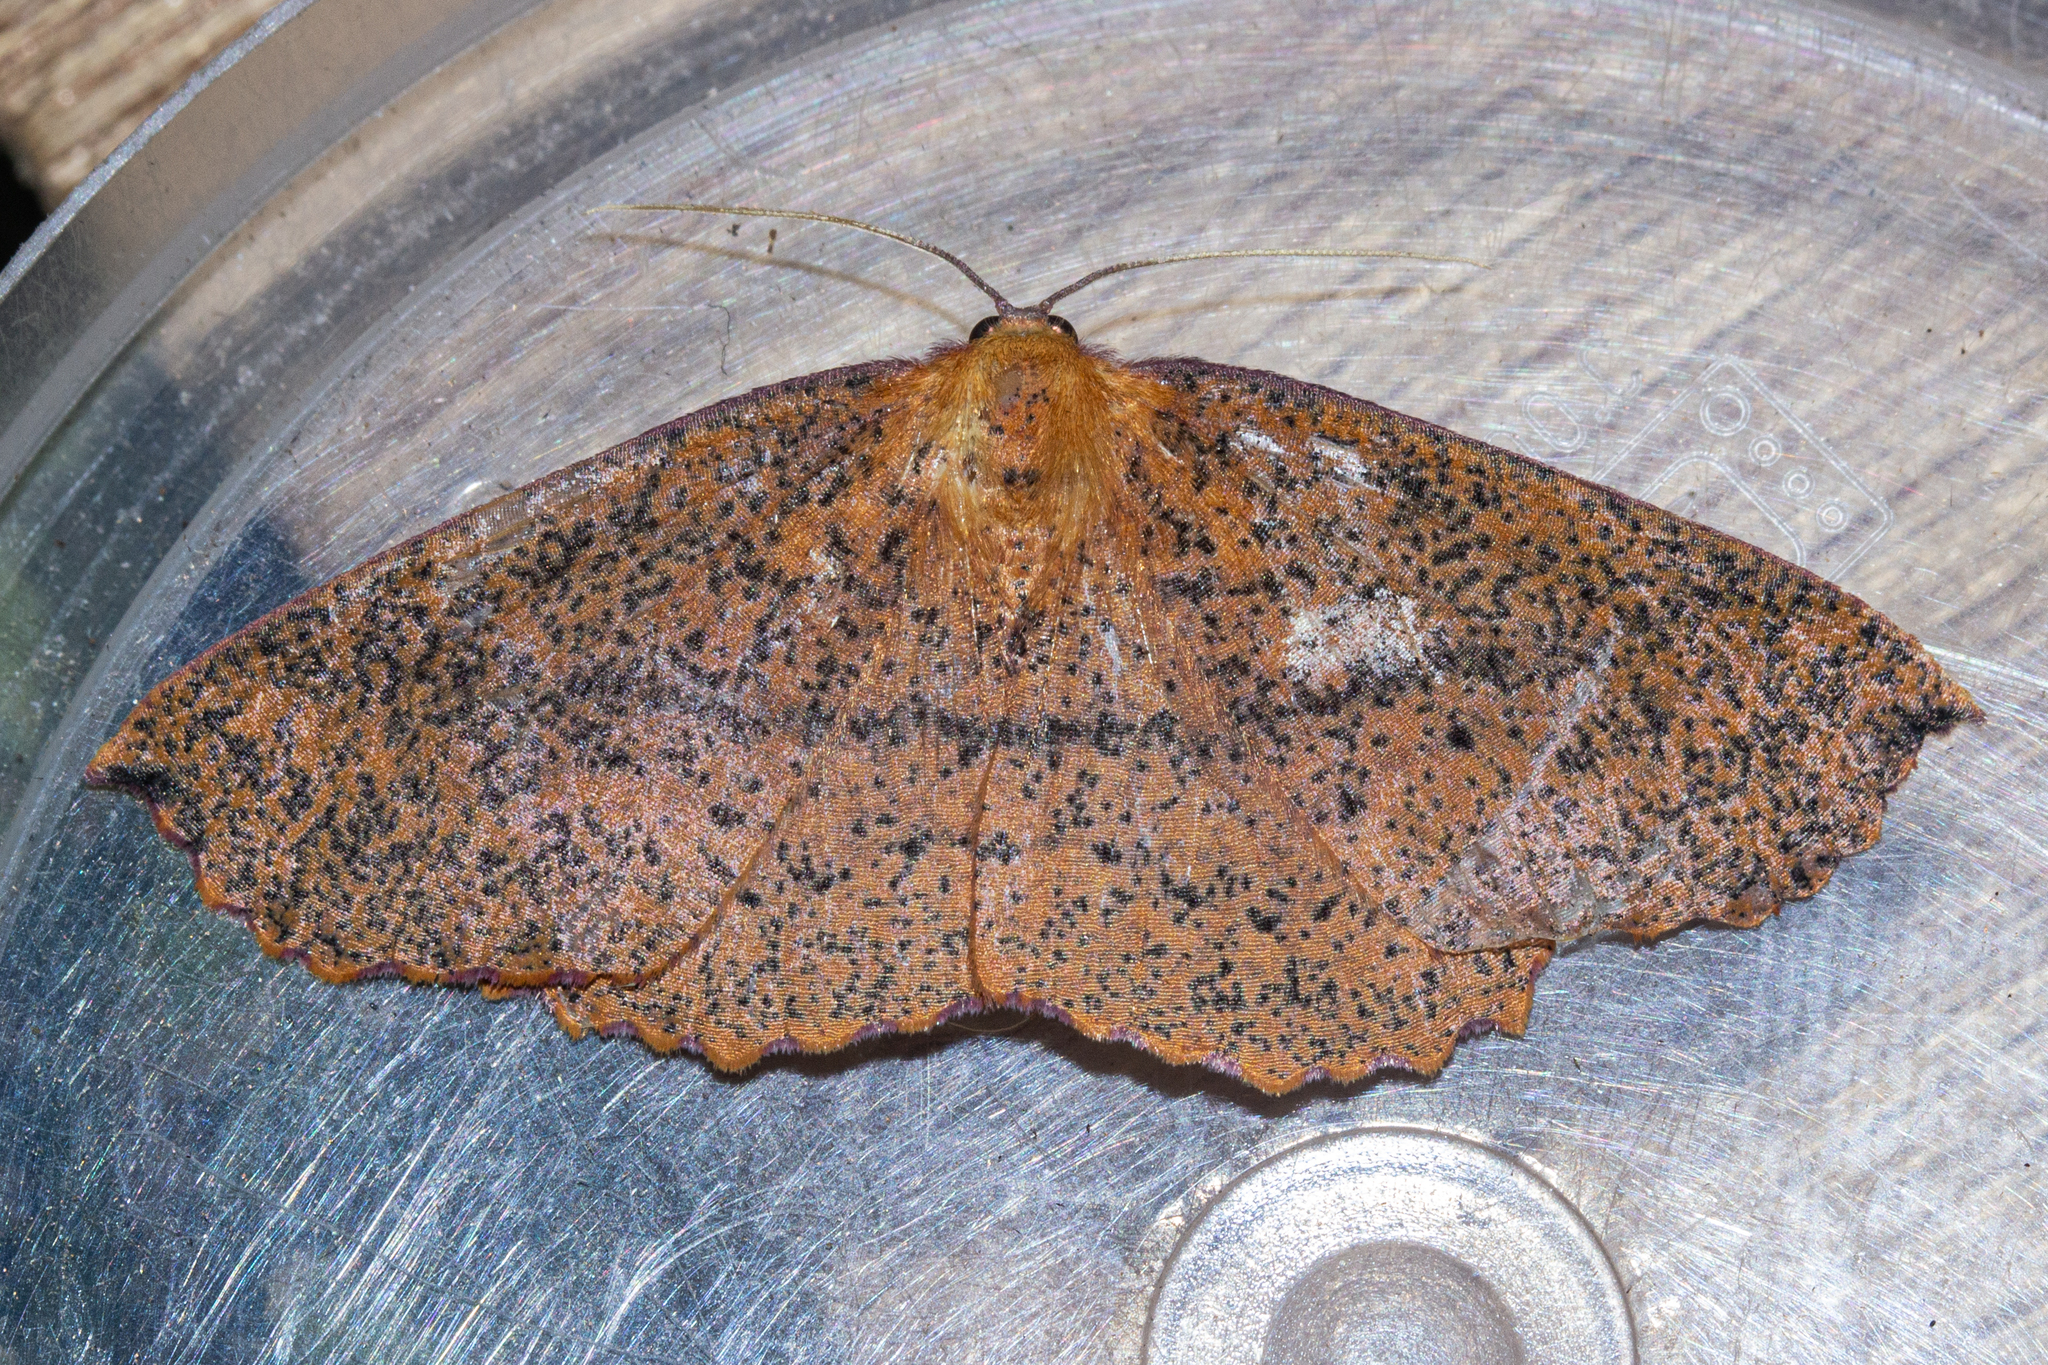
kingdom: Animalia
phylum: Arthropoda
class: Insecta
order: Lepidoptera
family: Geometridae
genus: Xyridacma
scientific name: Xyridacma alectoraria
